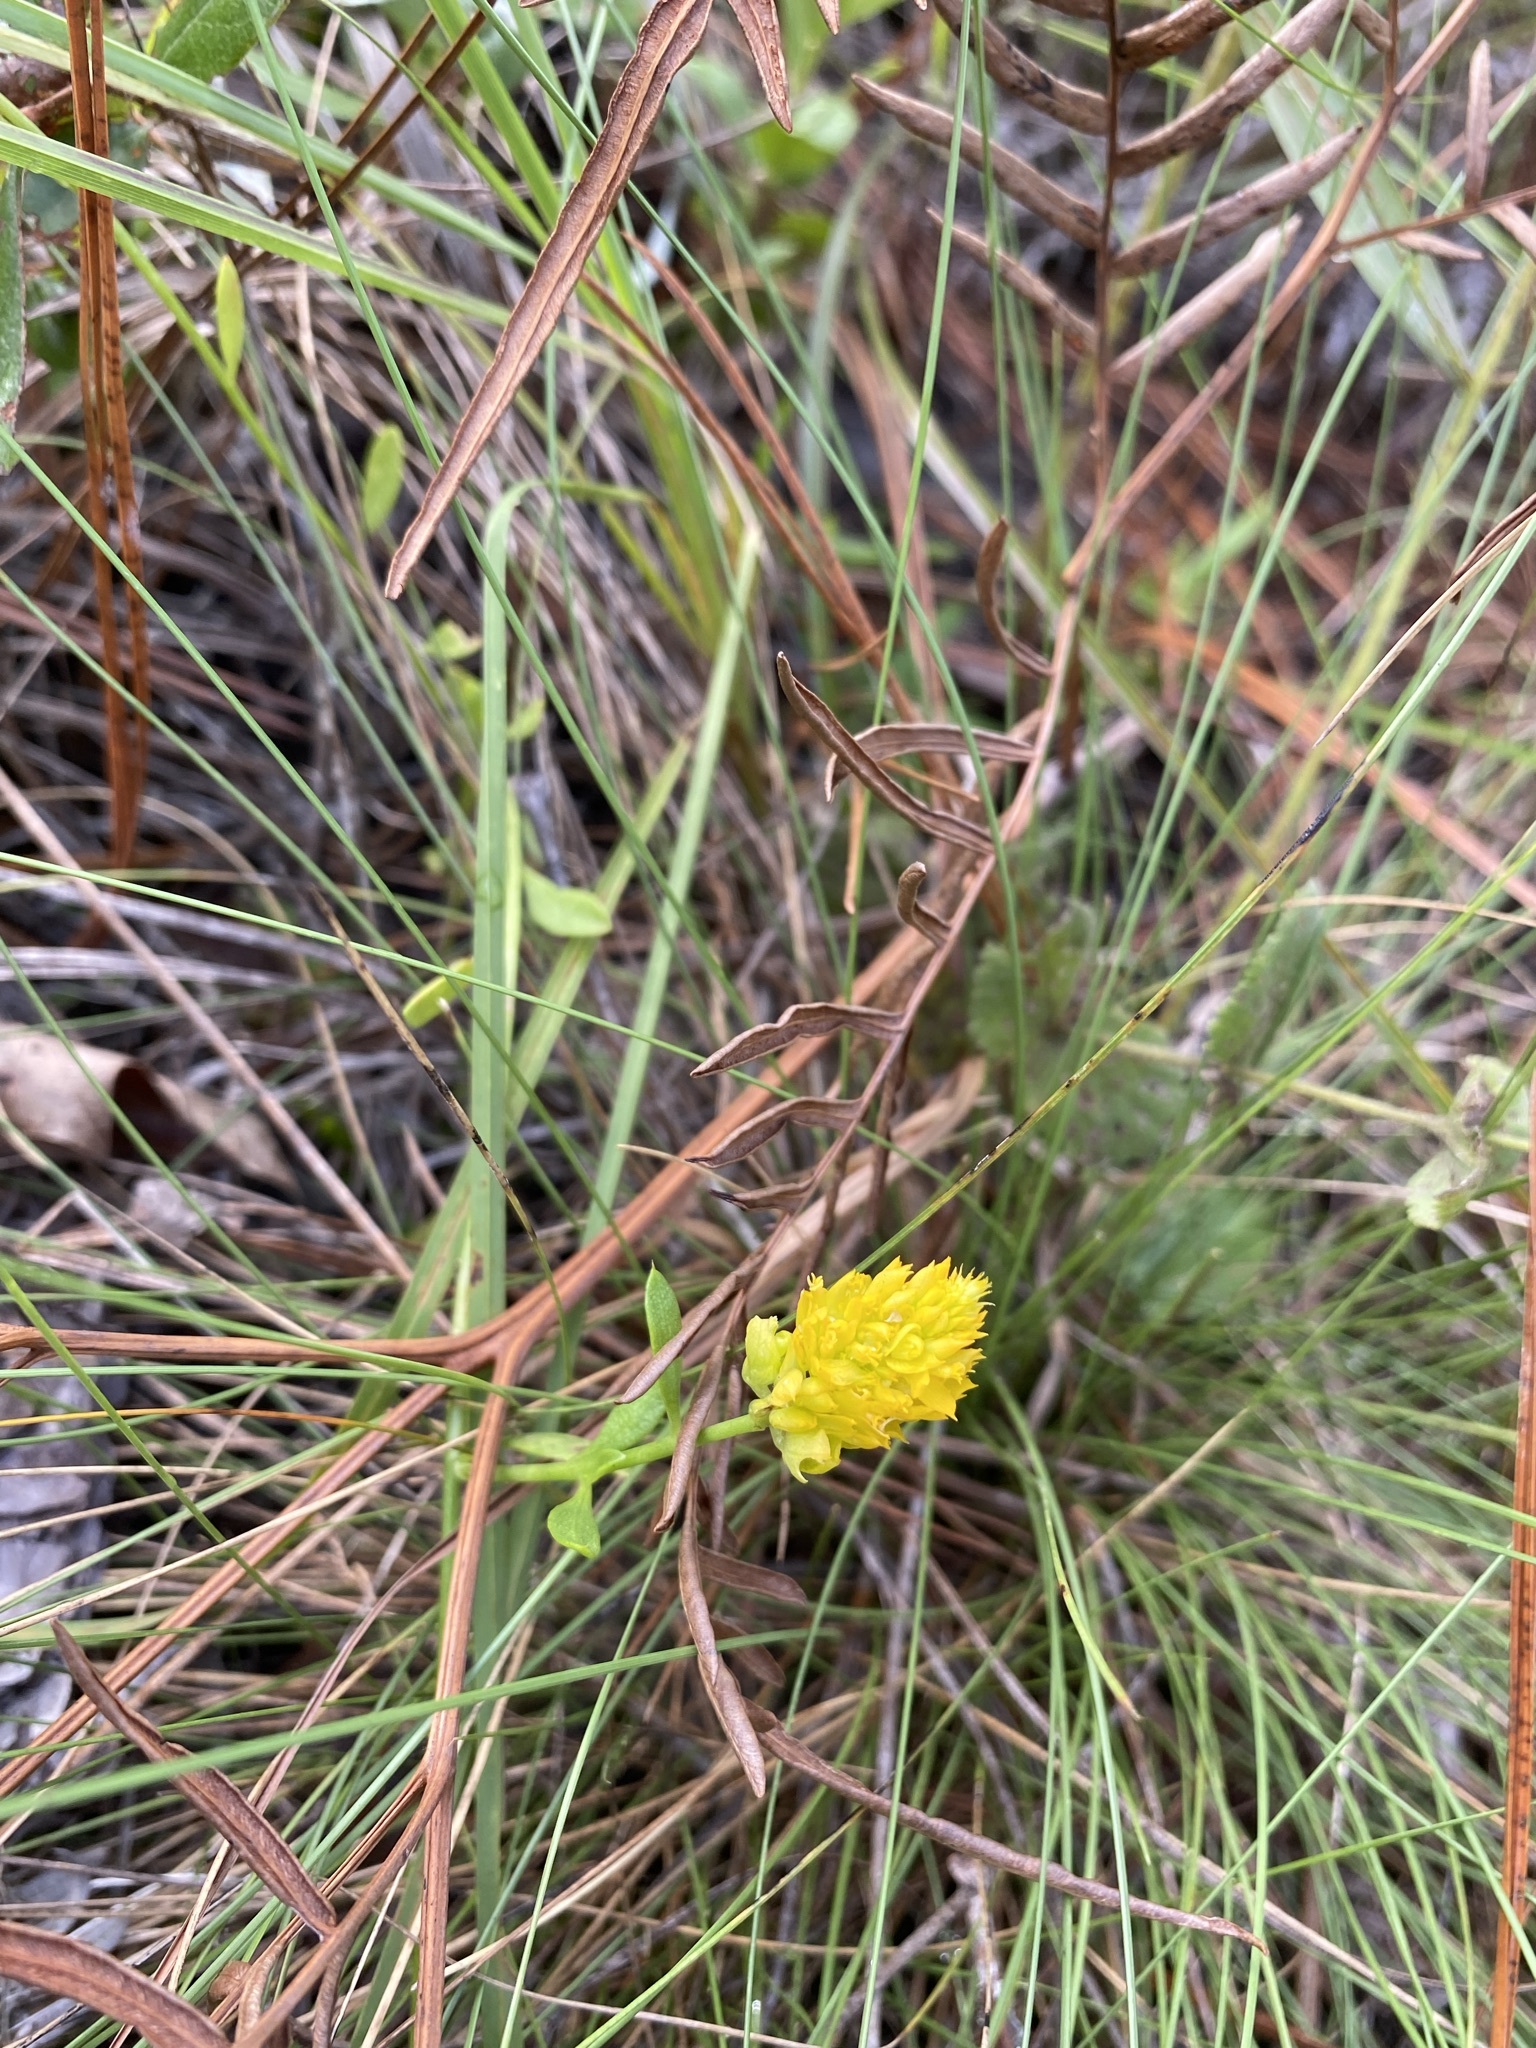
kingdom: Plantae
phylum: Tracheophyta
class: Magnoliopsida
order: Fabales
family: Polygalaceae
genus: Polygala
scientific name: Polygala lutea
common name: Orange milkwort
